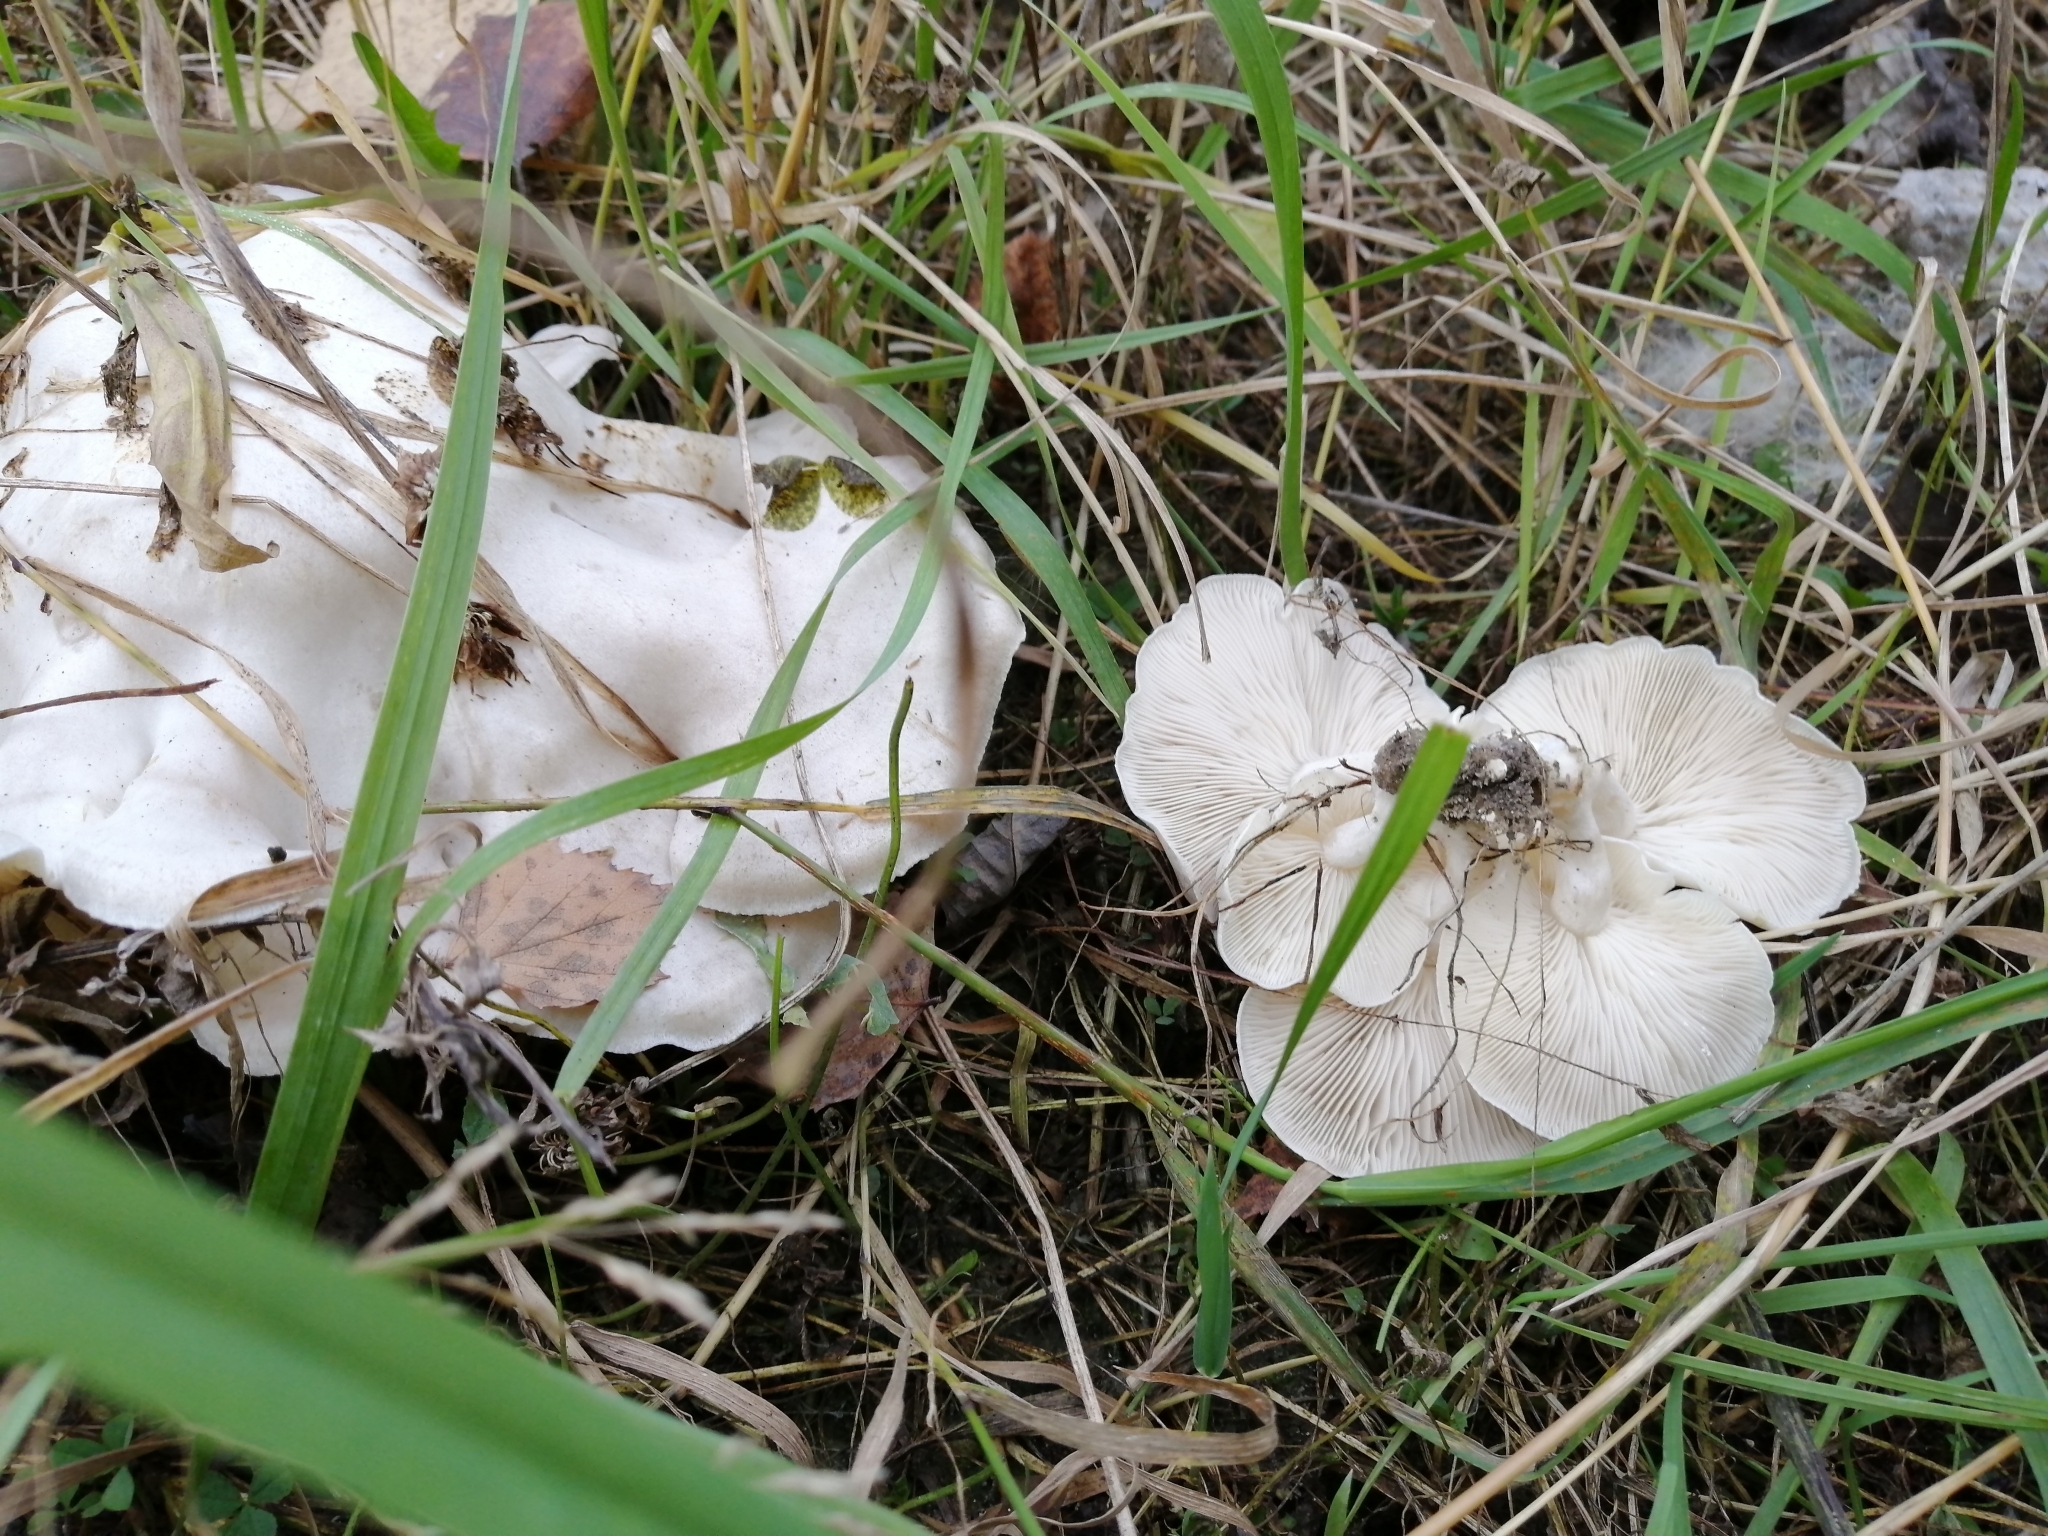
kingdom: Fungi
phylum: Basidiomycota
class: Agaricomycetes
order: Agaricales
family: Tricholomataceae
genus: Leucocybe
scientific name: Leucocybe connata
